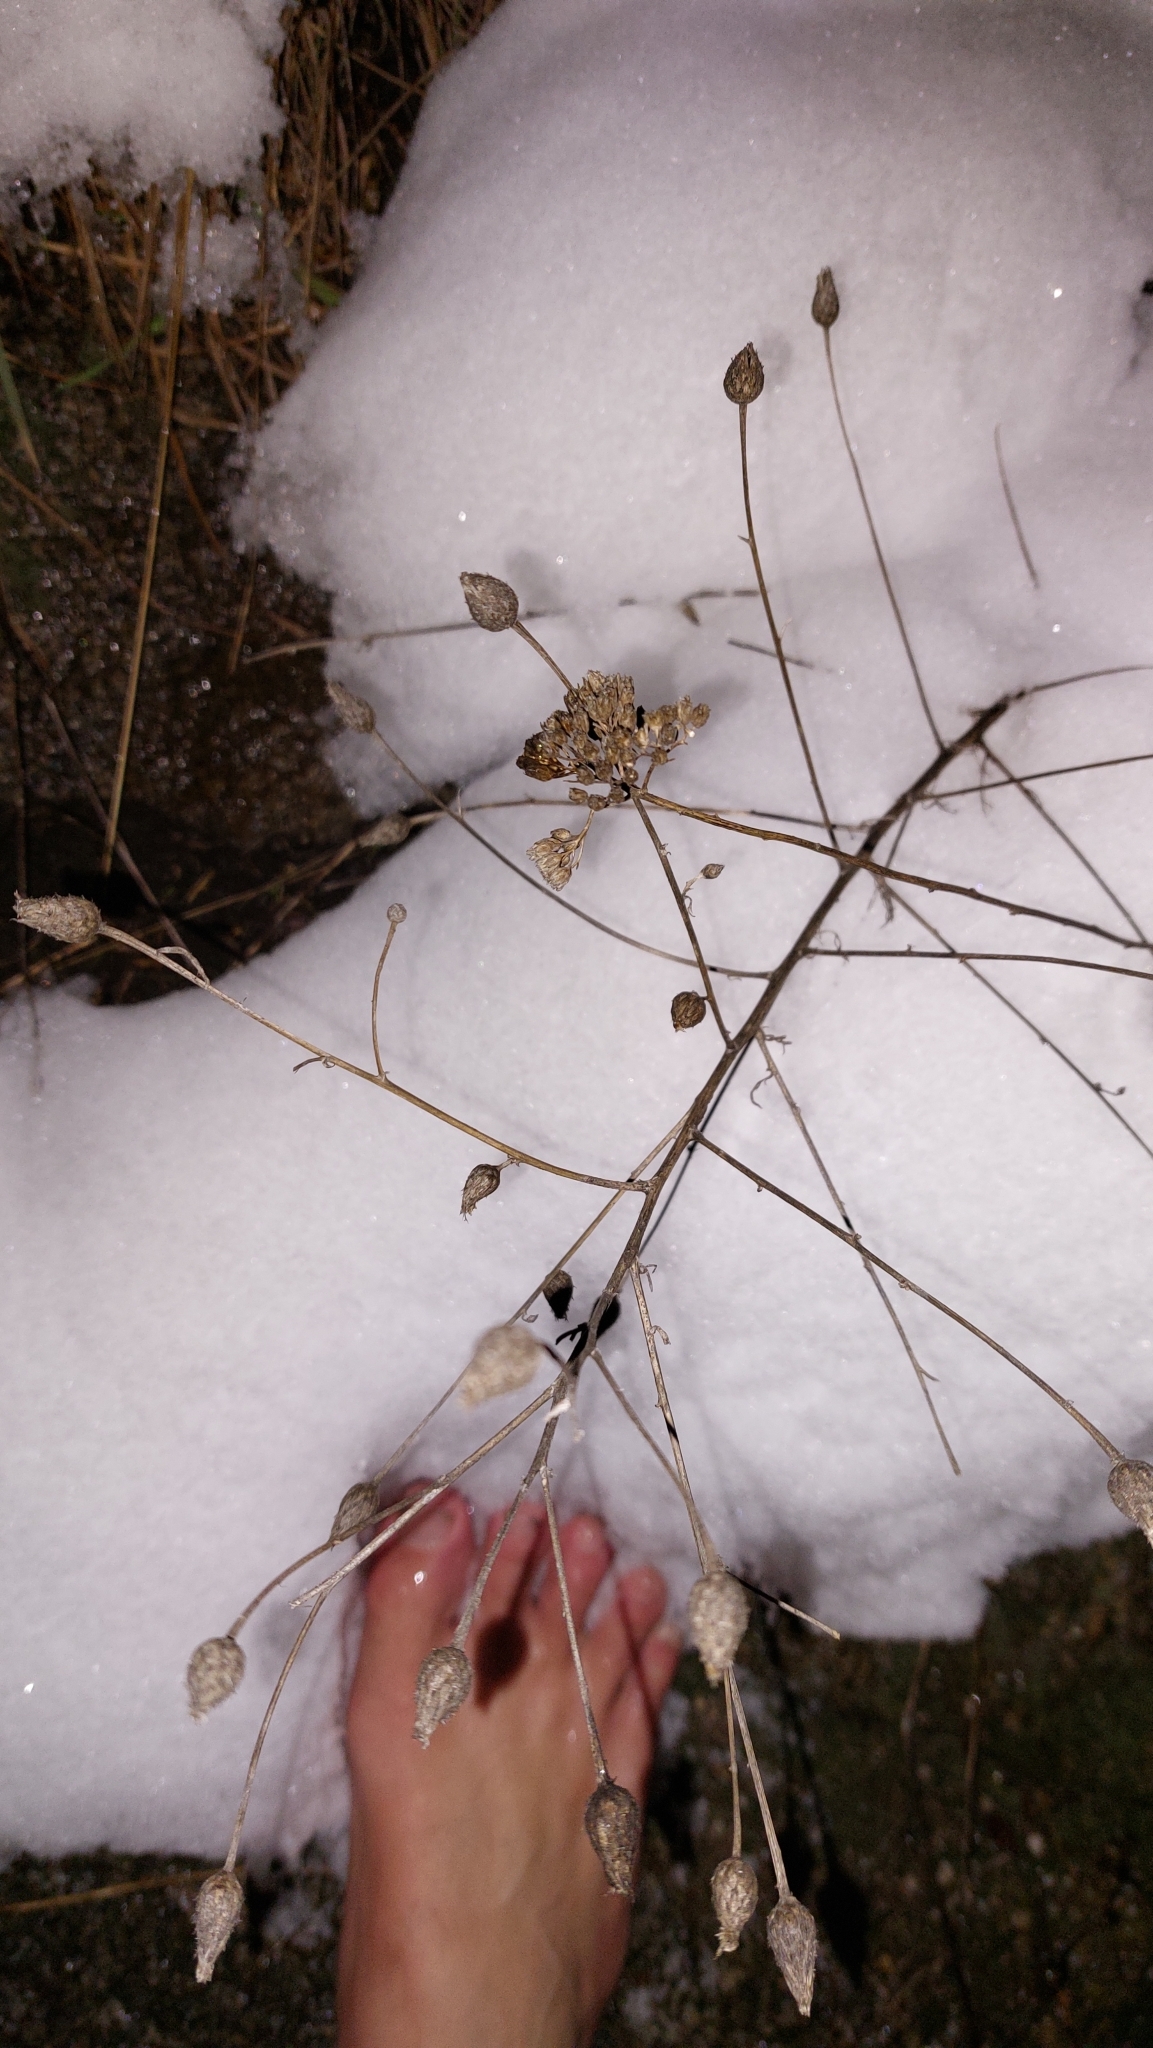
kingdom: Plantae
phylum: Tracheophyta
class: Magnoliopsida
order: Asterales
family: Asteraceae
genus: Centaurea
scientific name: Centaurea stoebe
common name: Spotted knapweed
